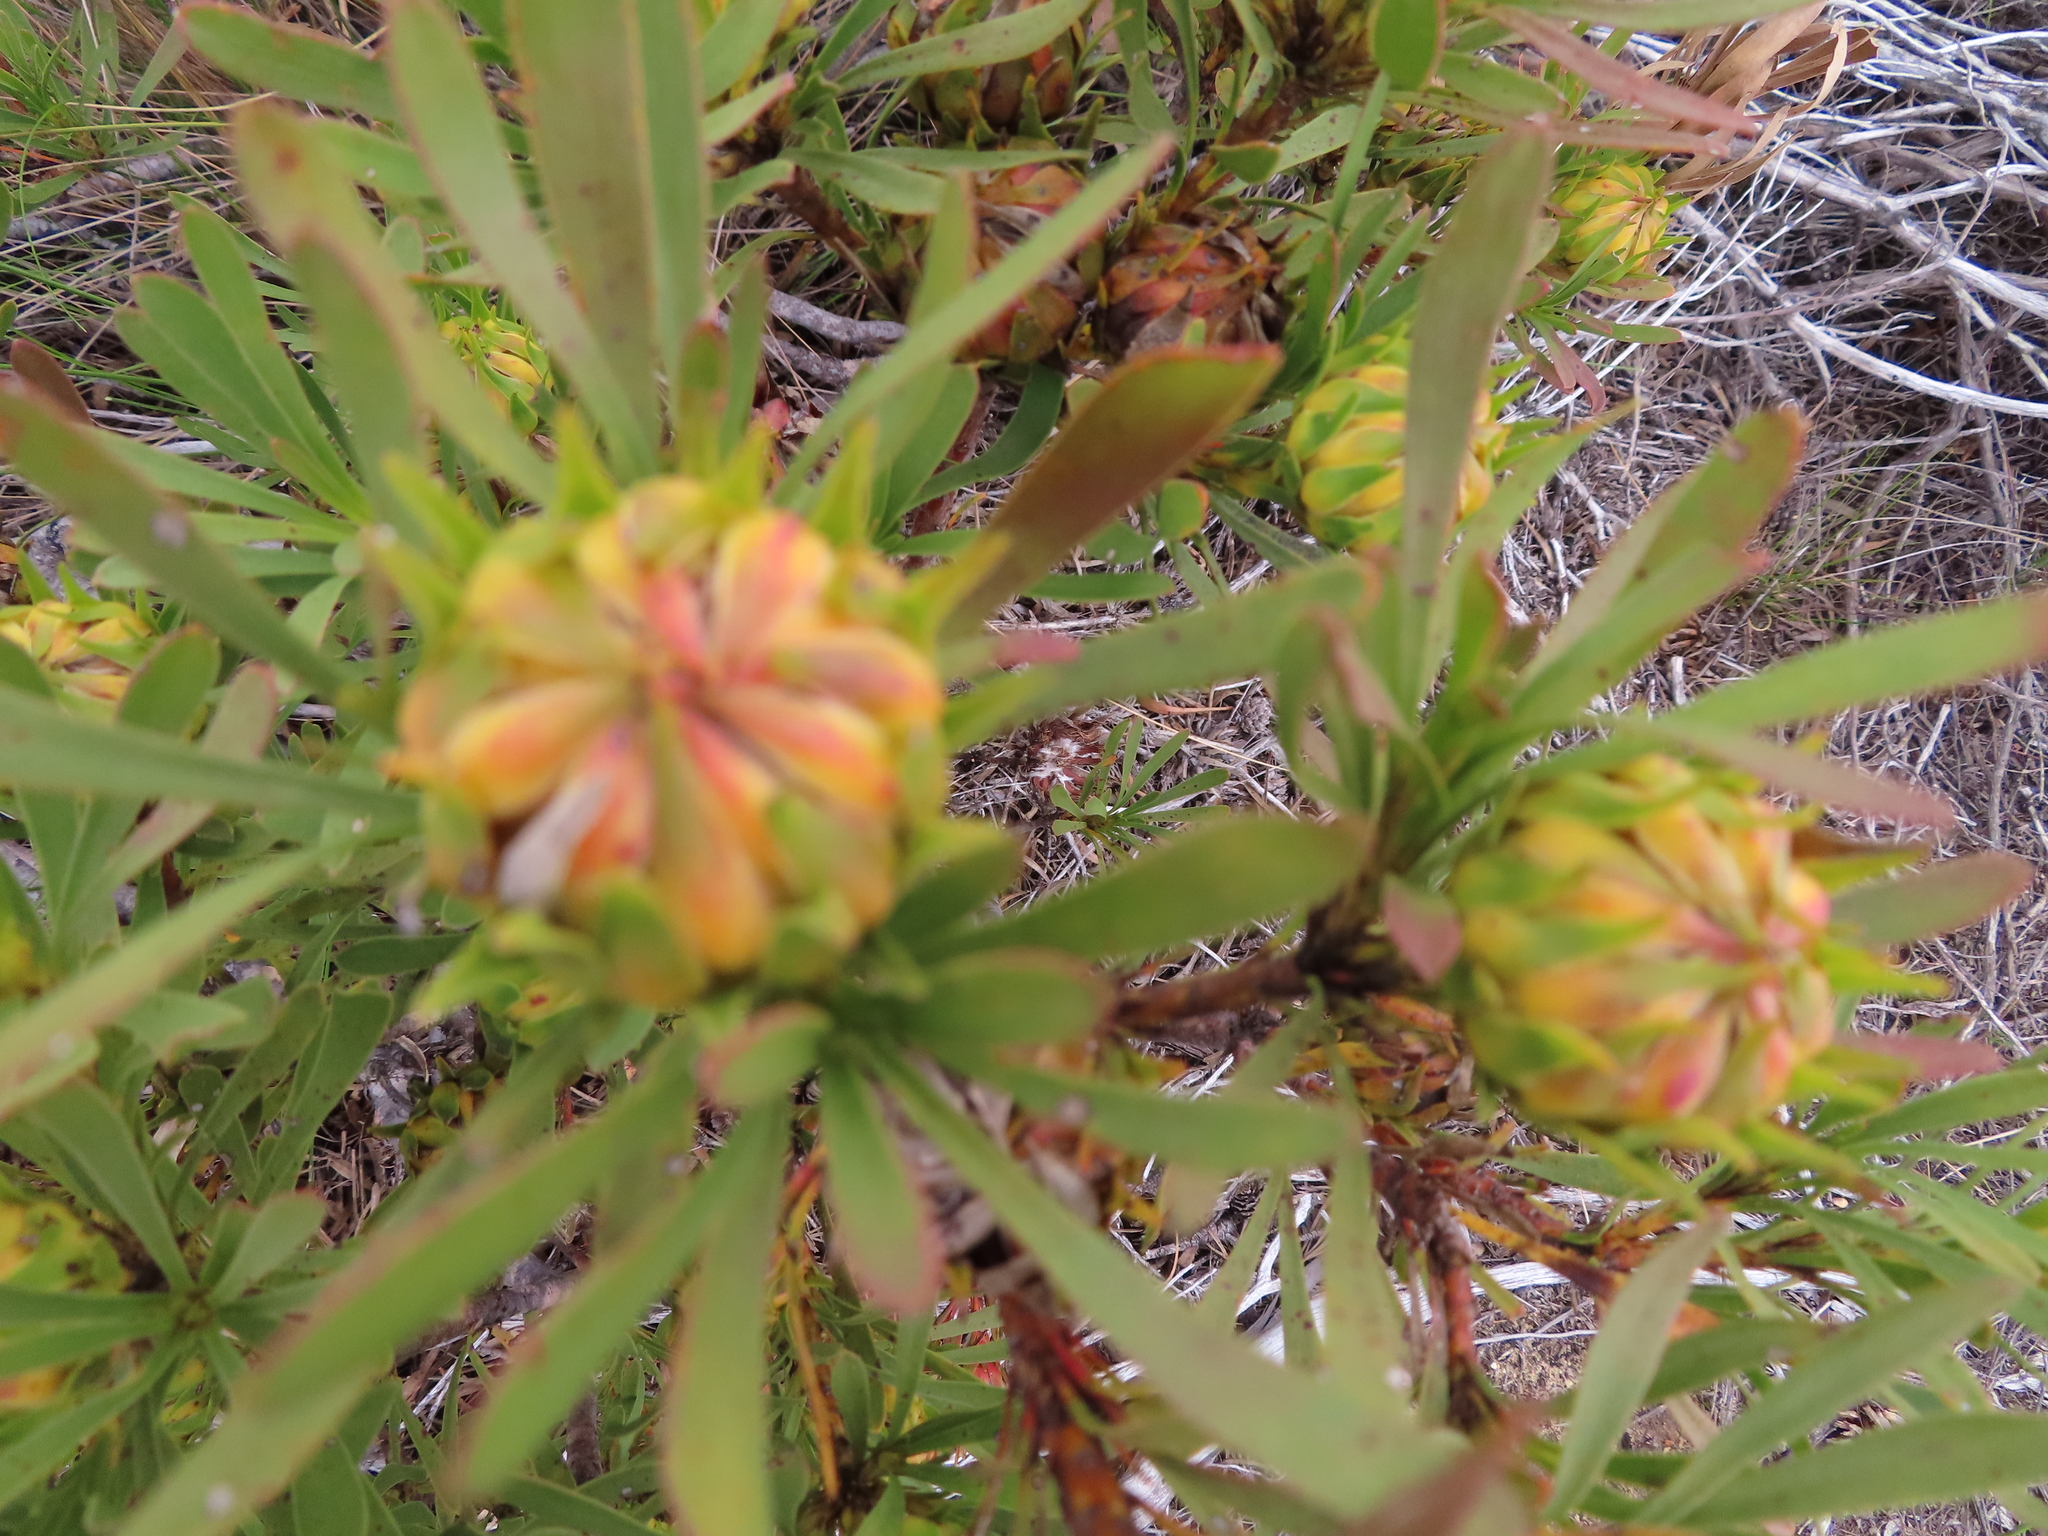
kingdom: Plantae
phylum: Tracheophyta
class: Magnoliopsida
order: Proteales
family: Proteaceae
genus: Aulax
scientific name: Aulax umbellata
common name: Broad-leaf featherbush
